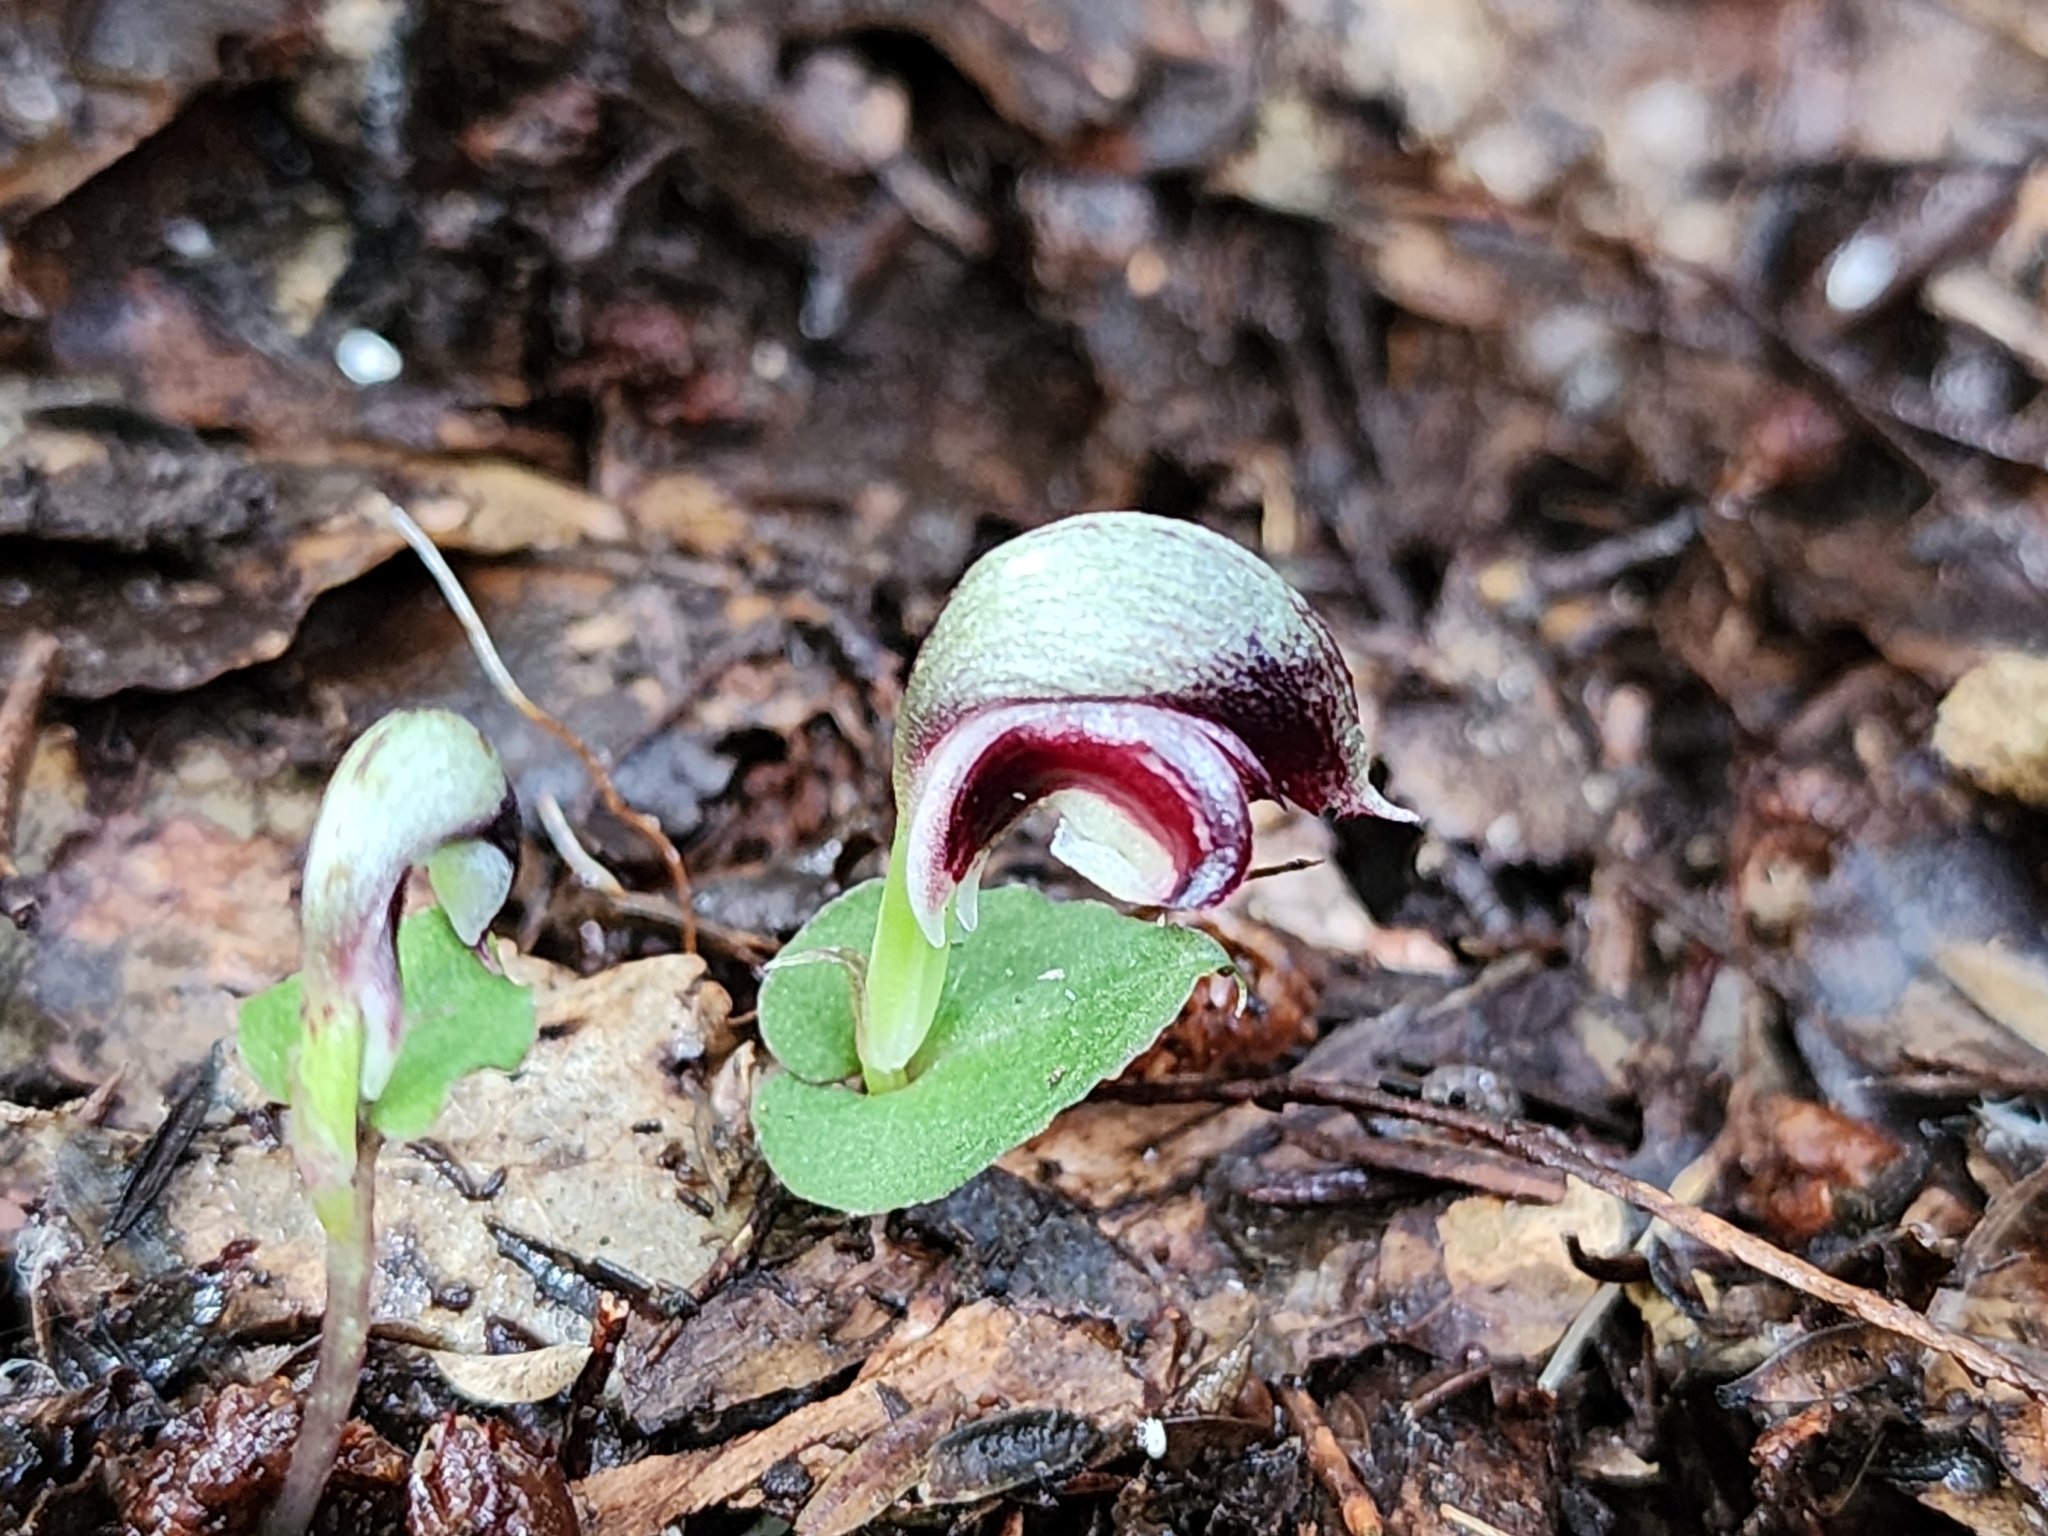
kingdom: Plantae
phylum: Tracheophyta
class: Liliopsida
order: Asparagales
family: Orchidaceae
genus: Corybas
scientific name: Corybas cheesemanii
